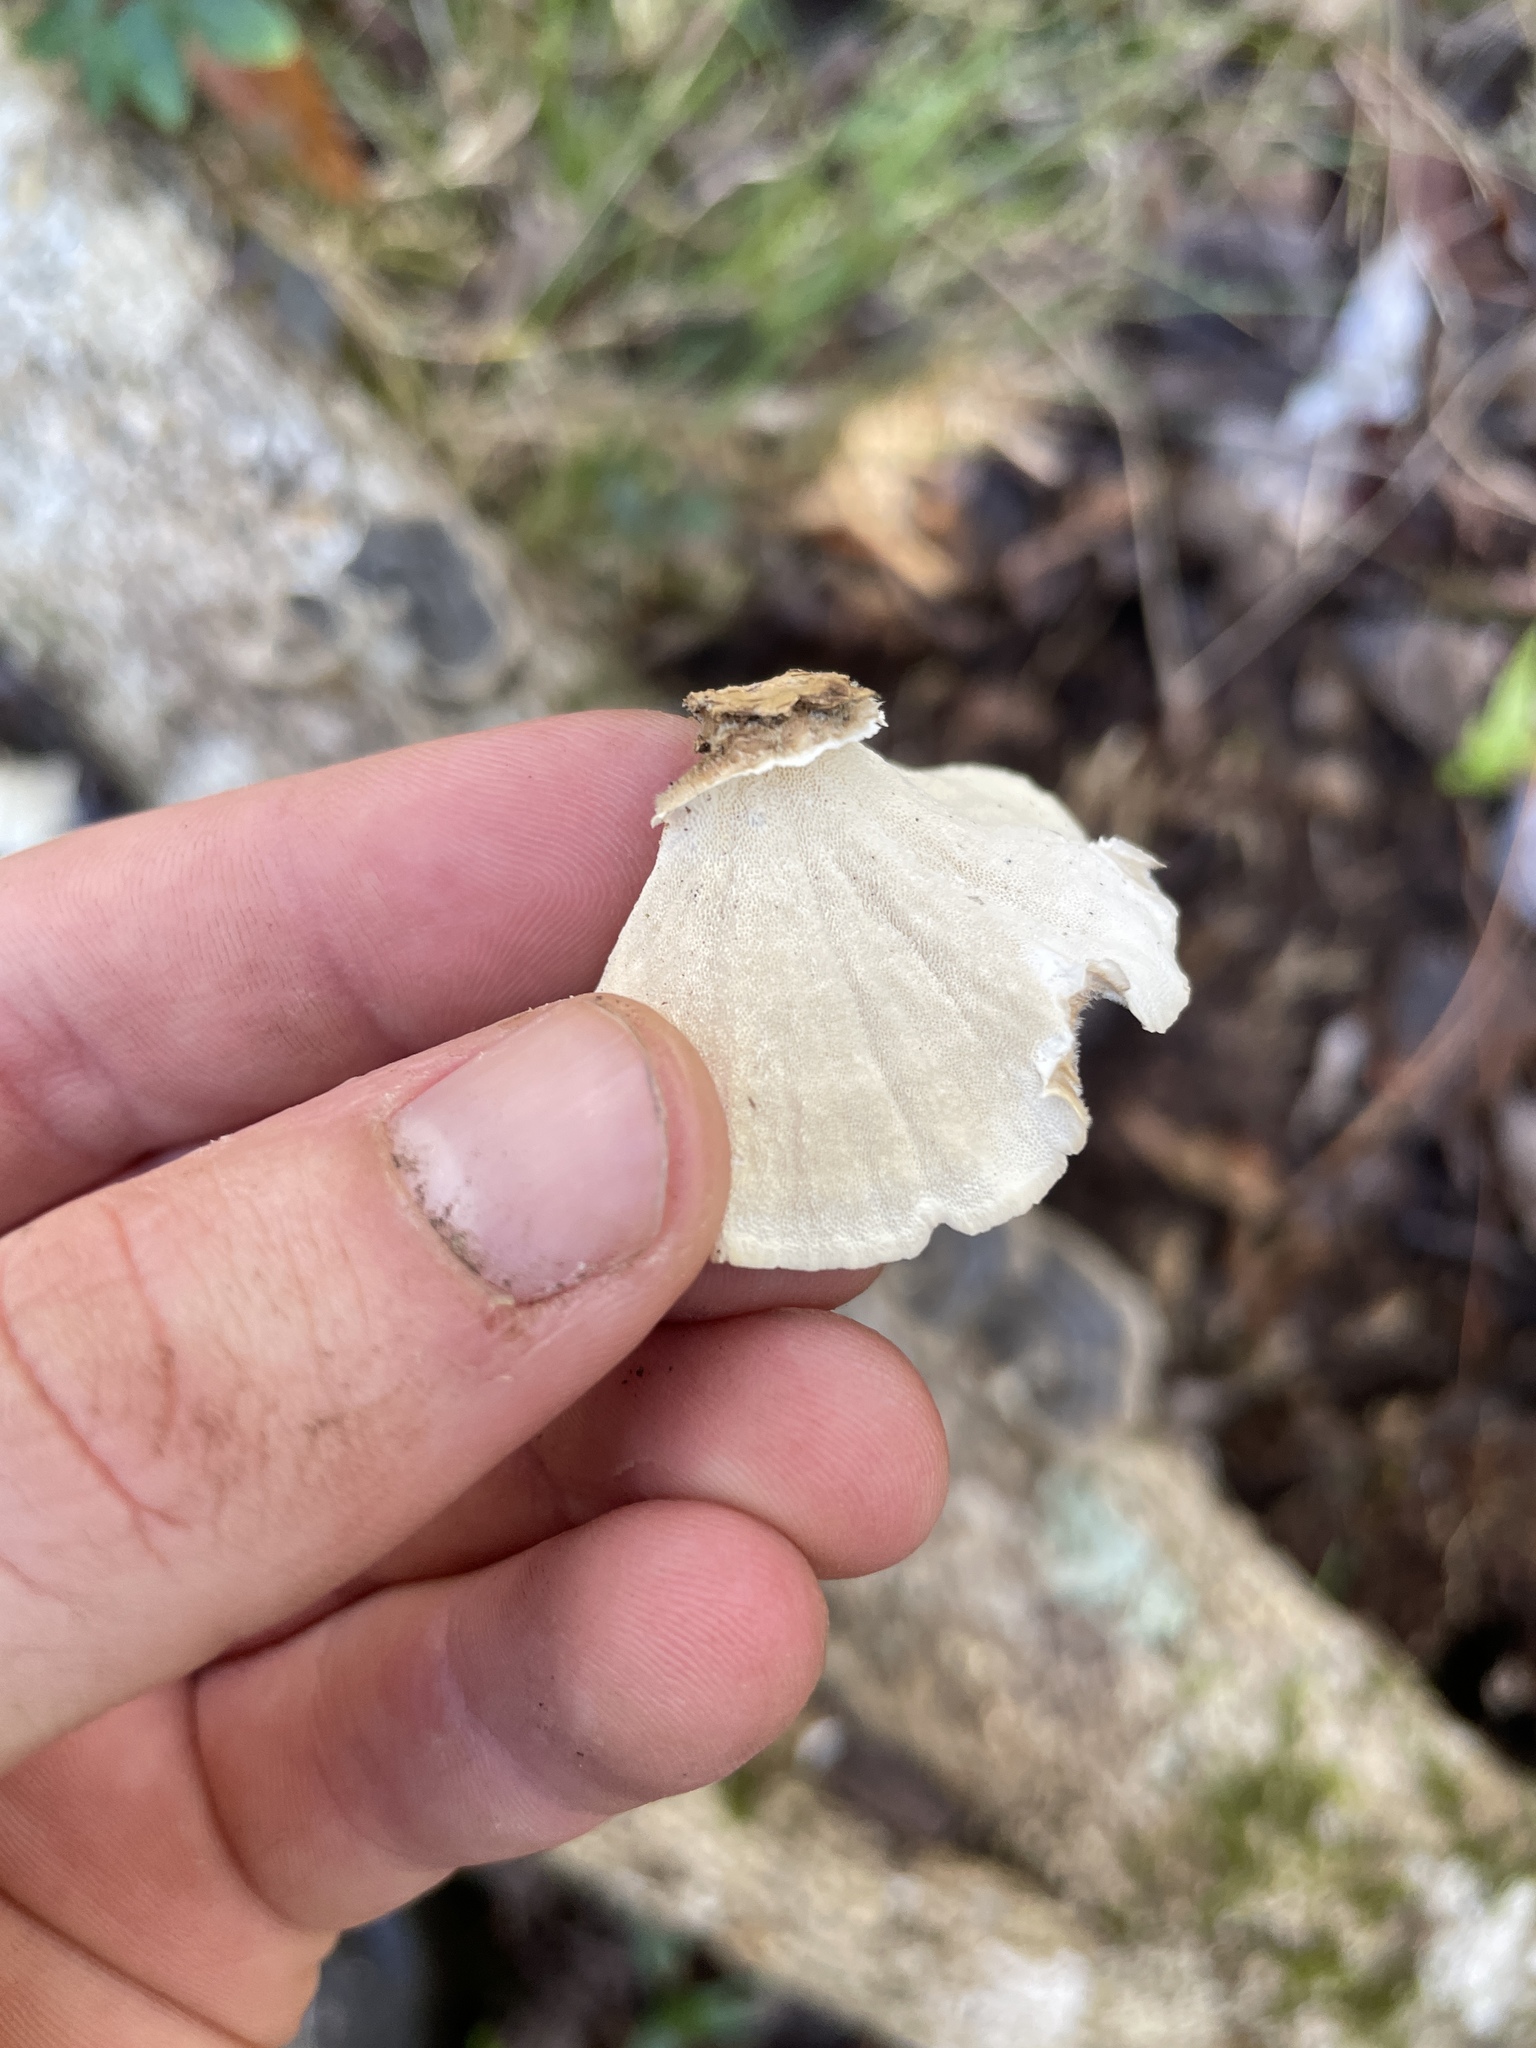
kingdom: Fungi
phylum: Basidiomycota
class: Agaricomycetes
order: Polyporales
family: Polyporaceae
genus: Trametes
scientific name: Trametes versicolor
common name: Turkeytail
